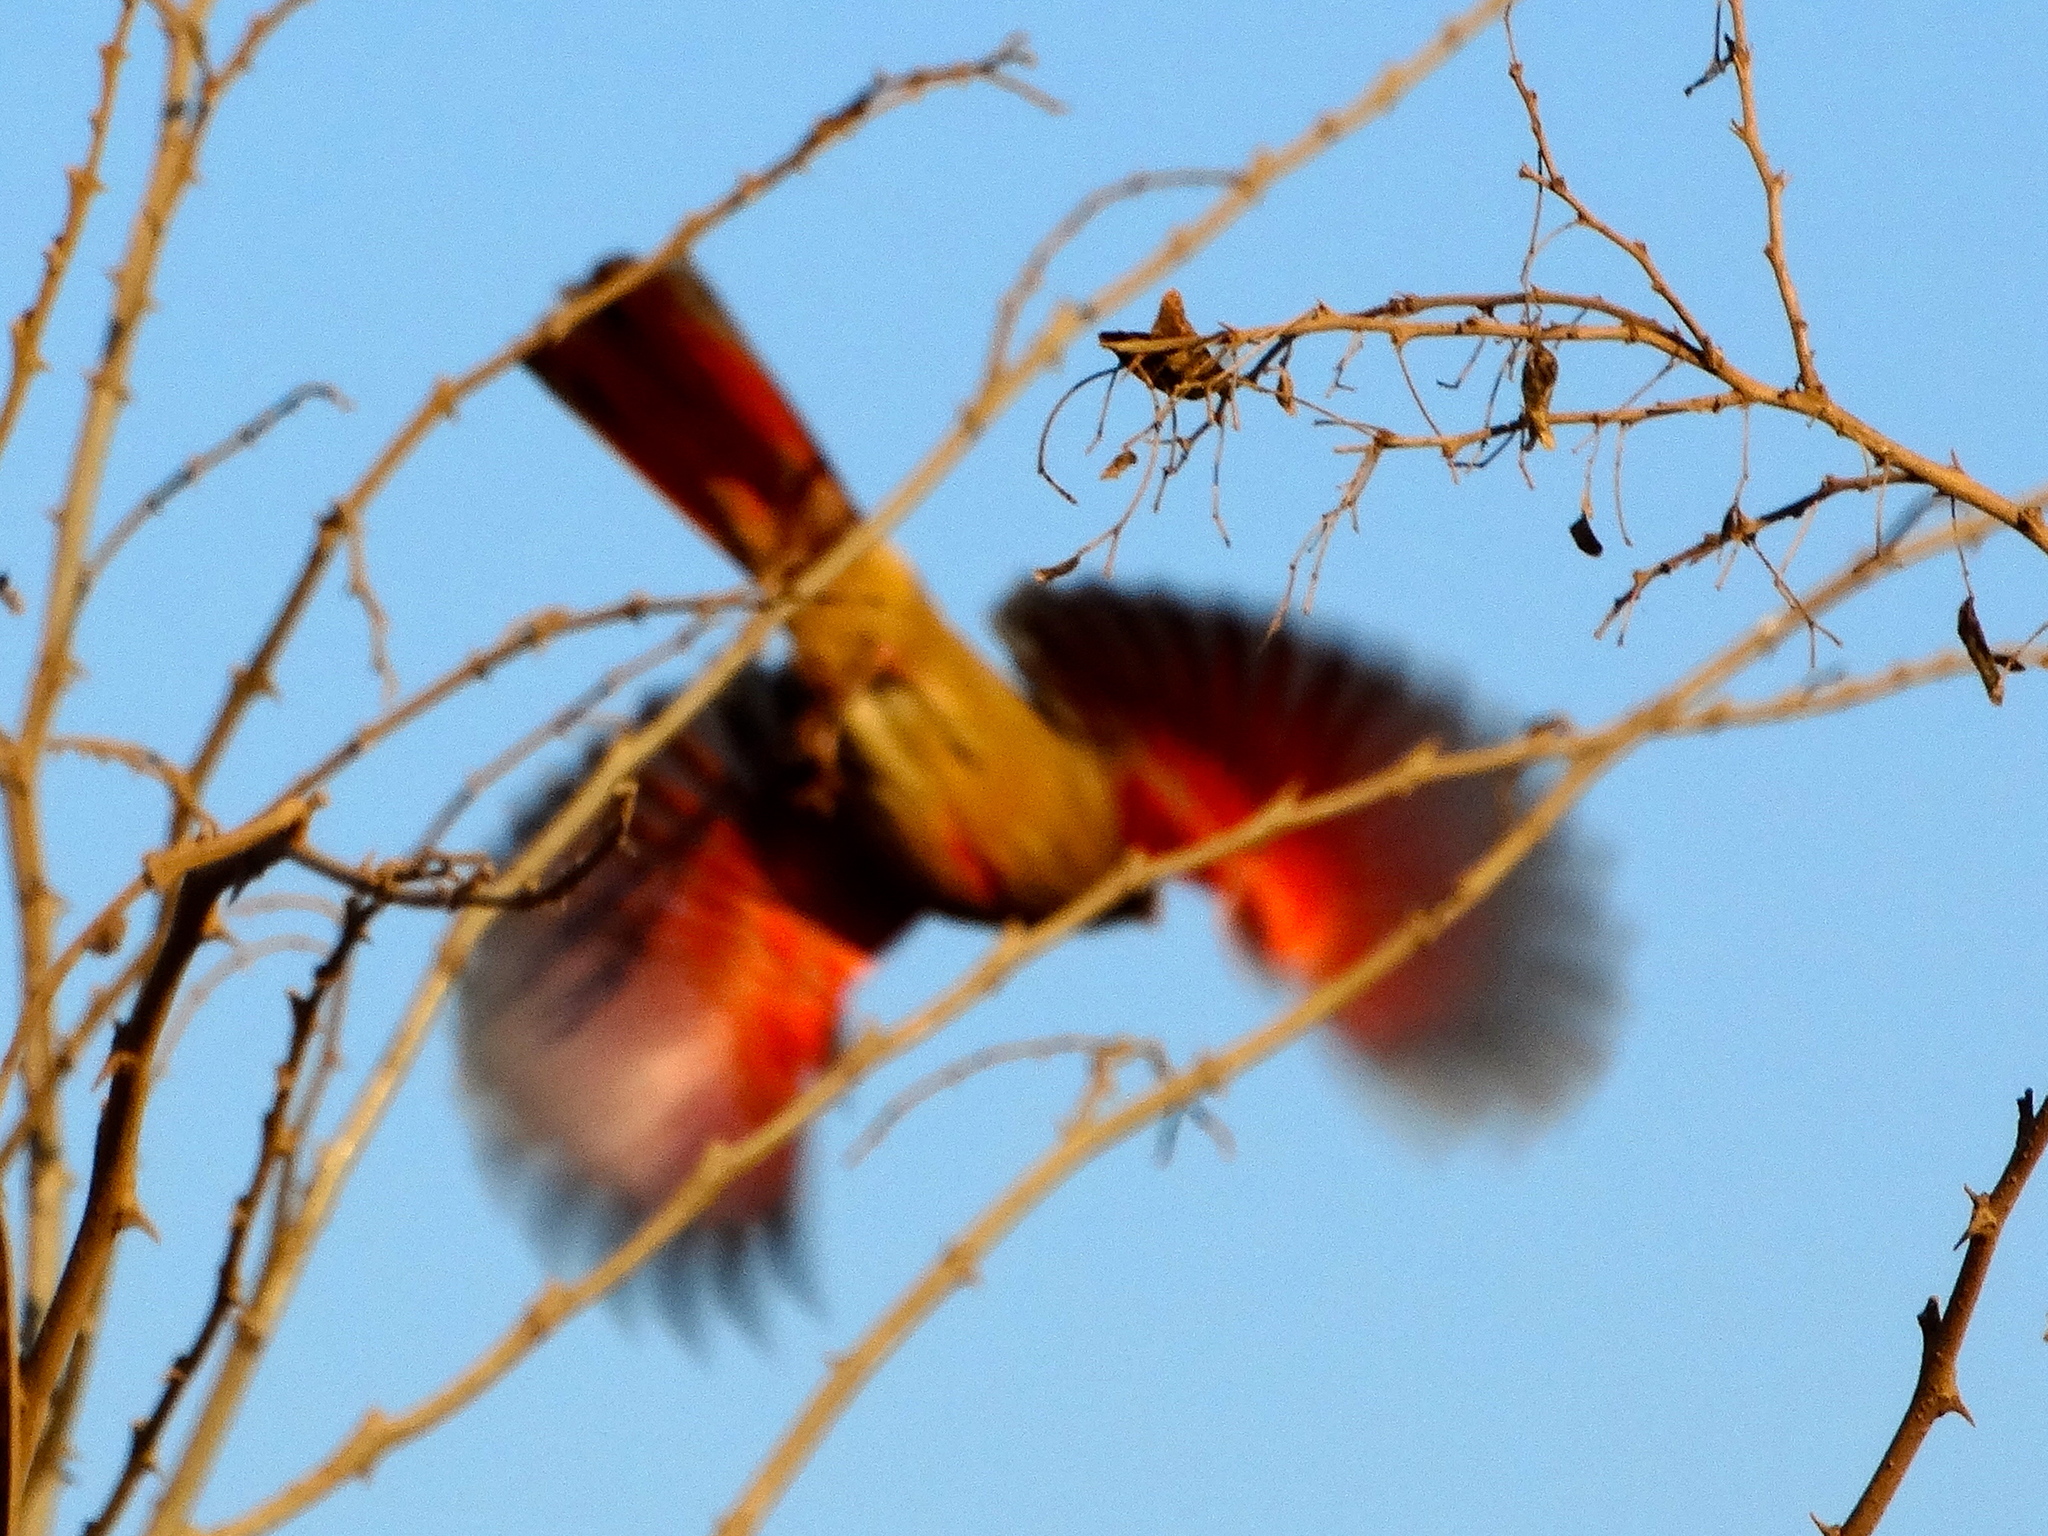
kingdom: Animalia
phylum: Chordata
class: Aves
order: Passeriformes
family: Cardinalidae
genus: Cardinalis
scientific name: Cardinalis cardinalis
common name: Northern cardinal
